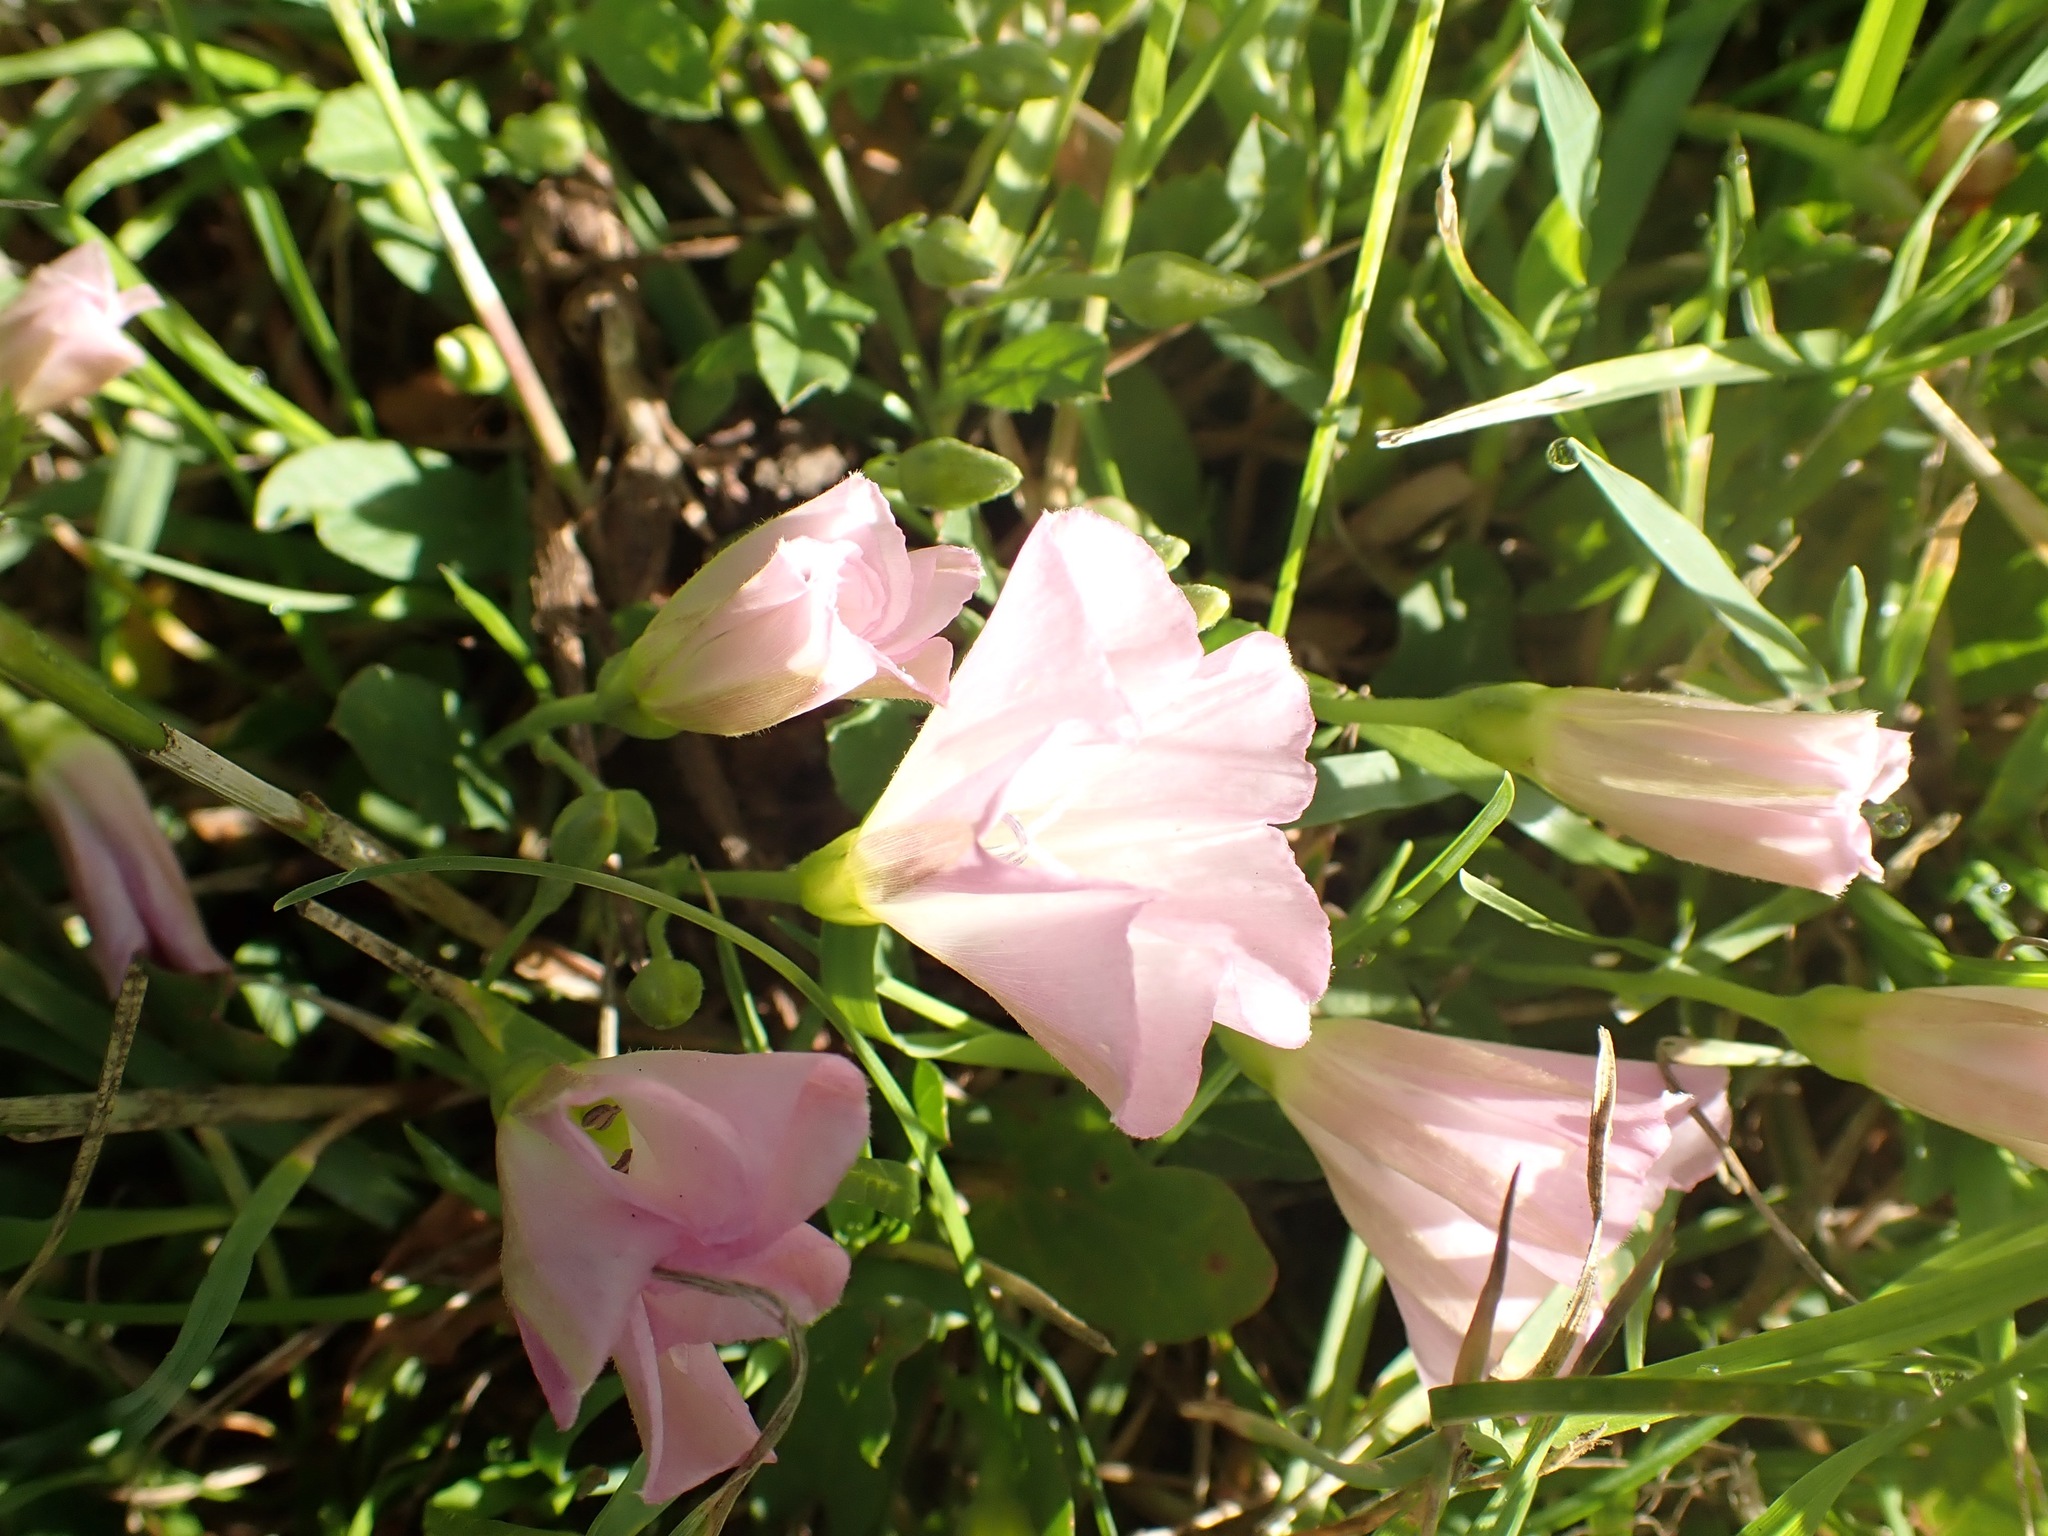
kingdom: Plantae
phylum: Tracheophyta
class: Magnoliopsida
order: Solanales
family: Convolvulaceae
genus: Convolvulus
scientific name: Convolvulus arvensis
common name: Field bindweed
